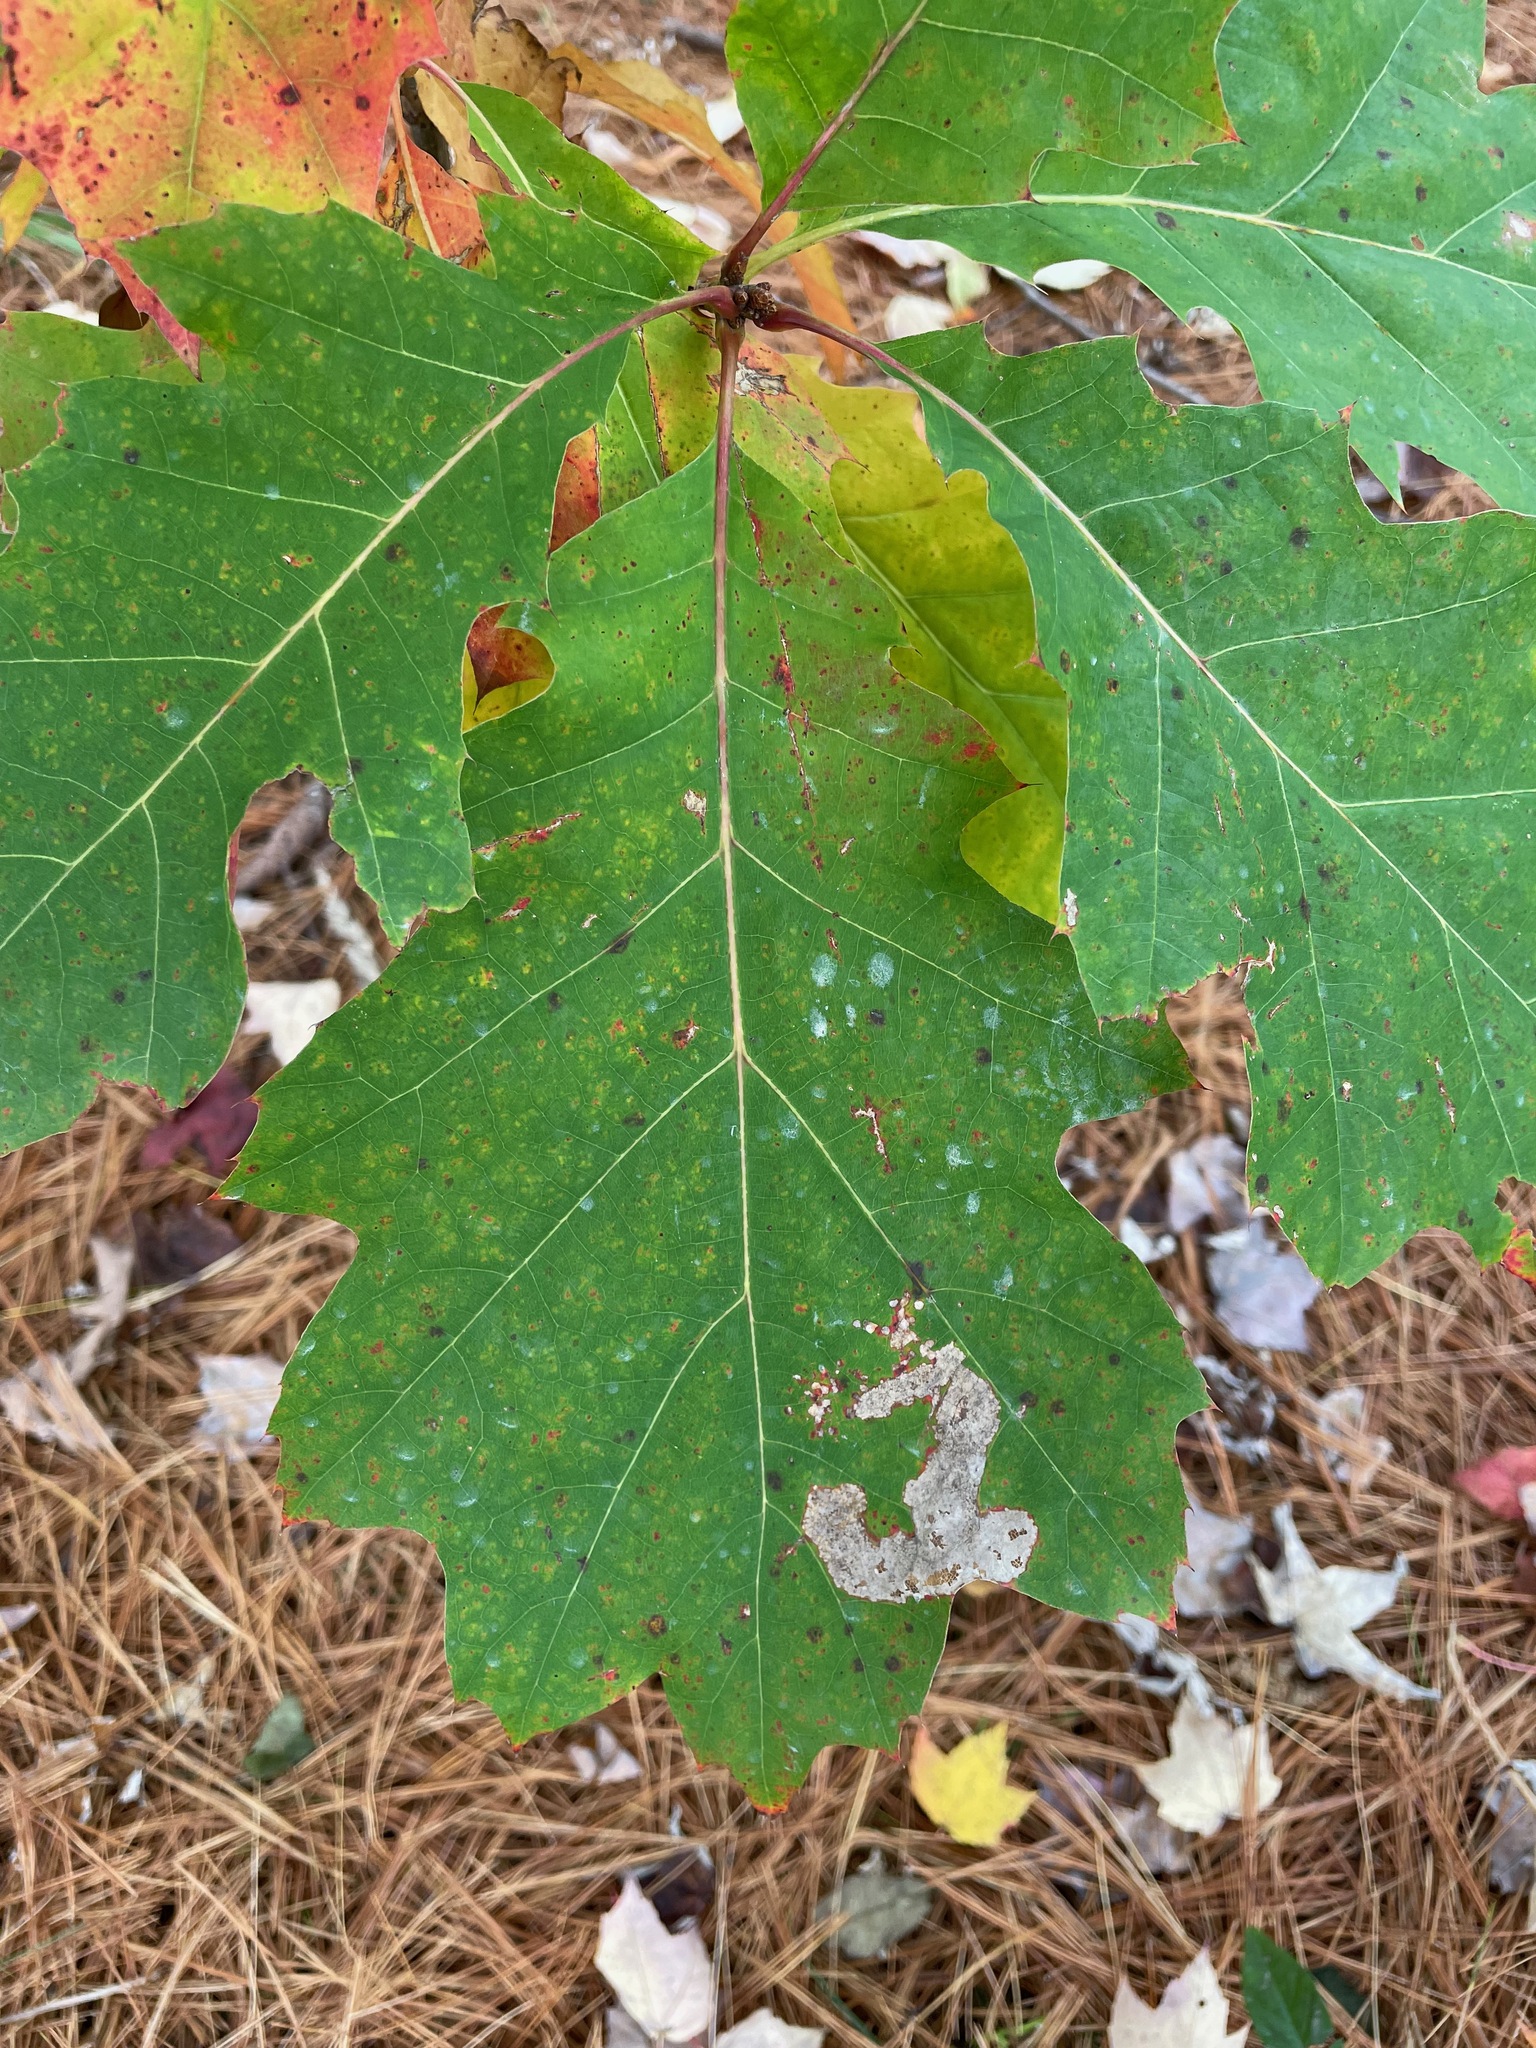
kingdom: Plantae
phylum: Tracheophyta
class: Magnoliopsida
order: Fagales
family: Fagaceae
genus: Quercus
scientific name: Quercus rubra
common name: Red oak
